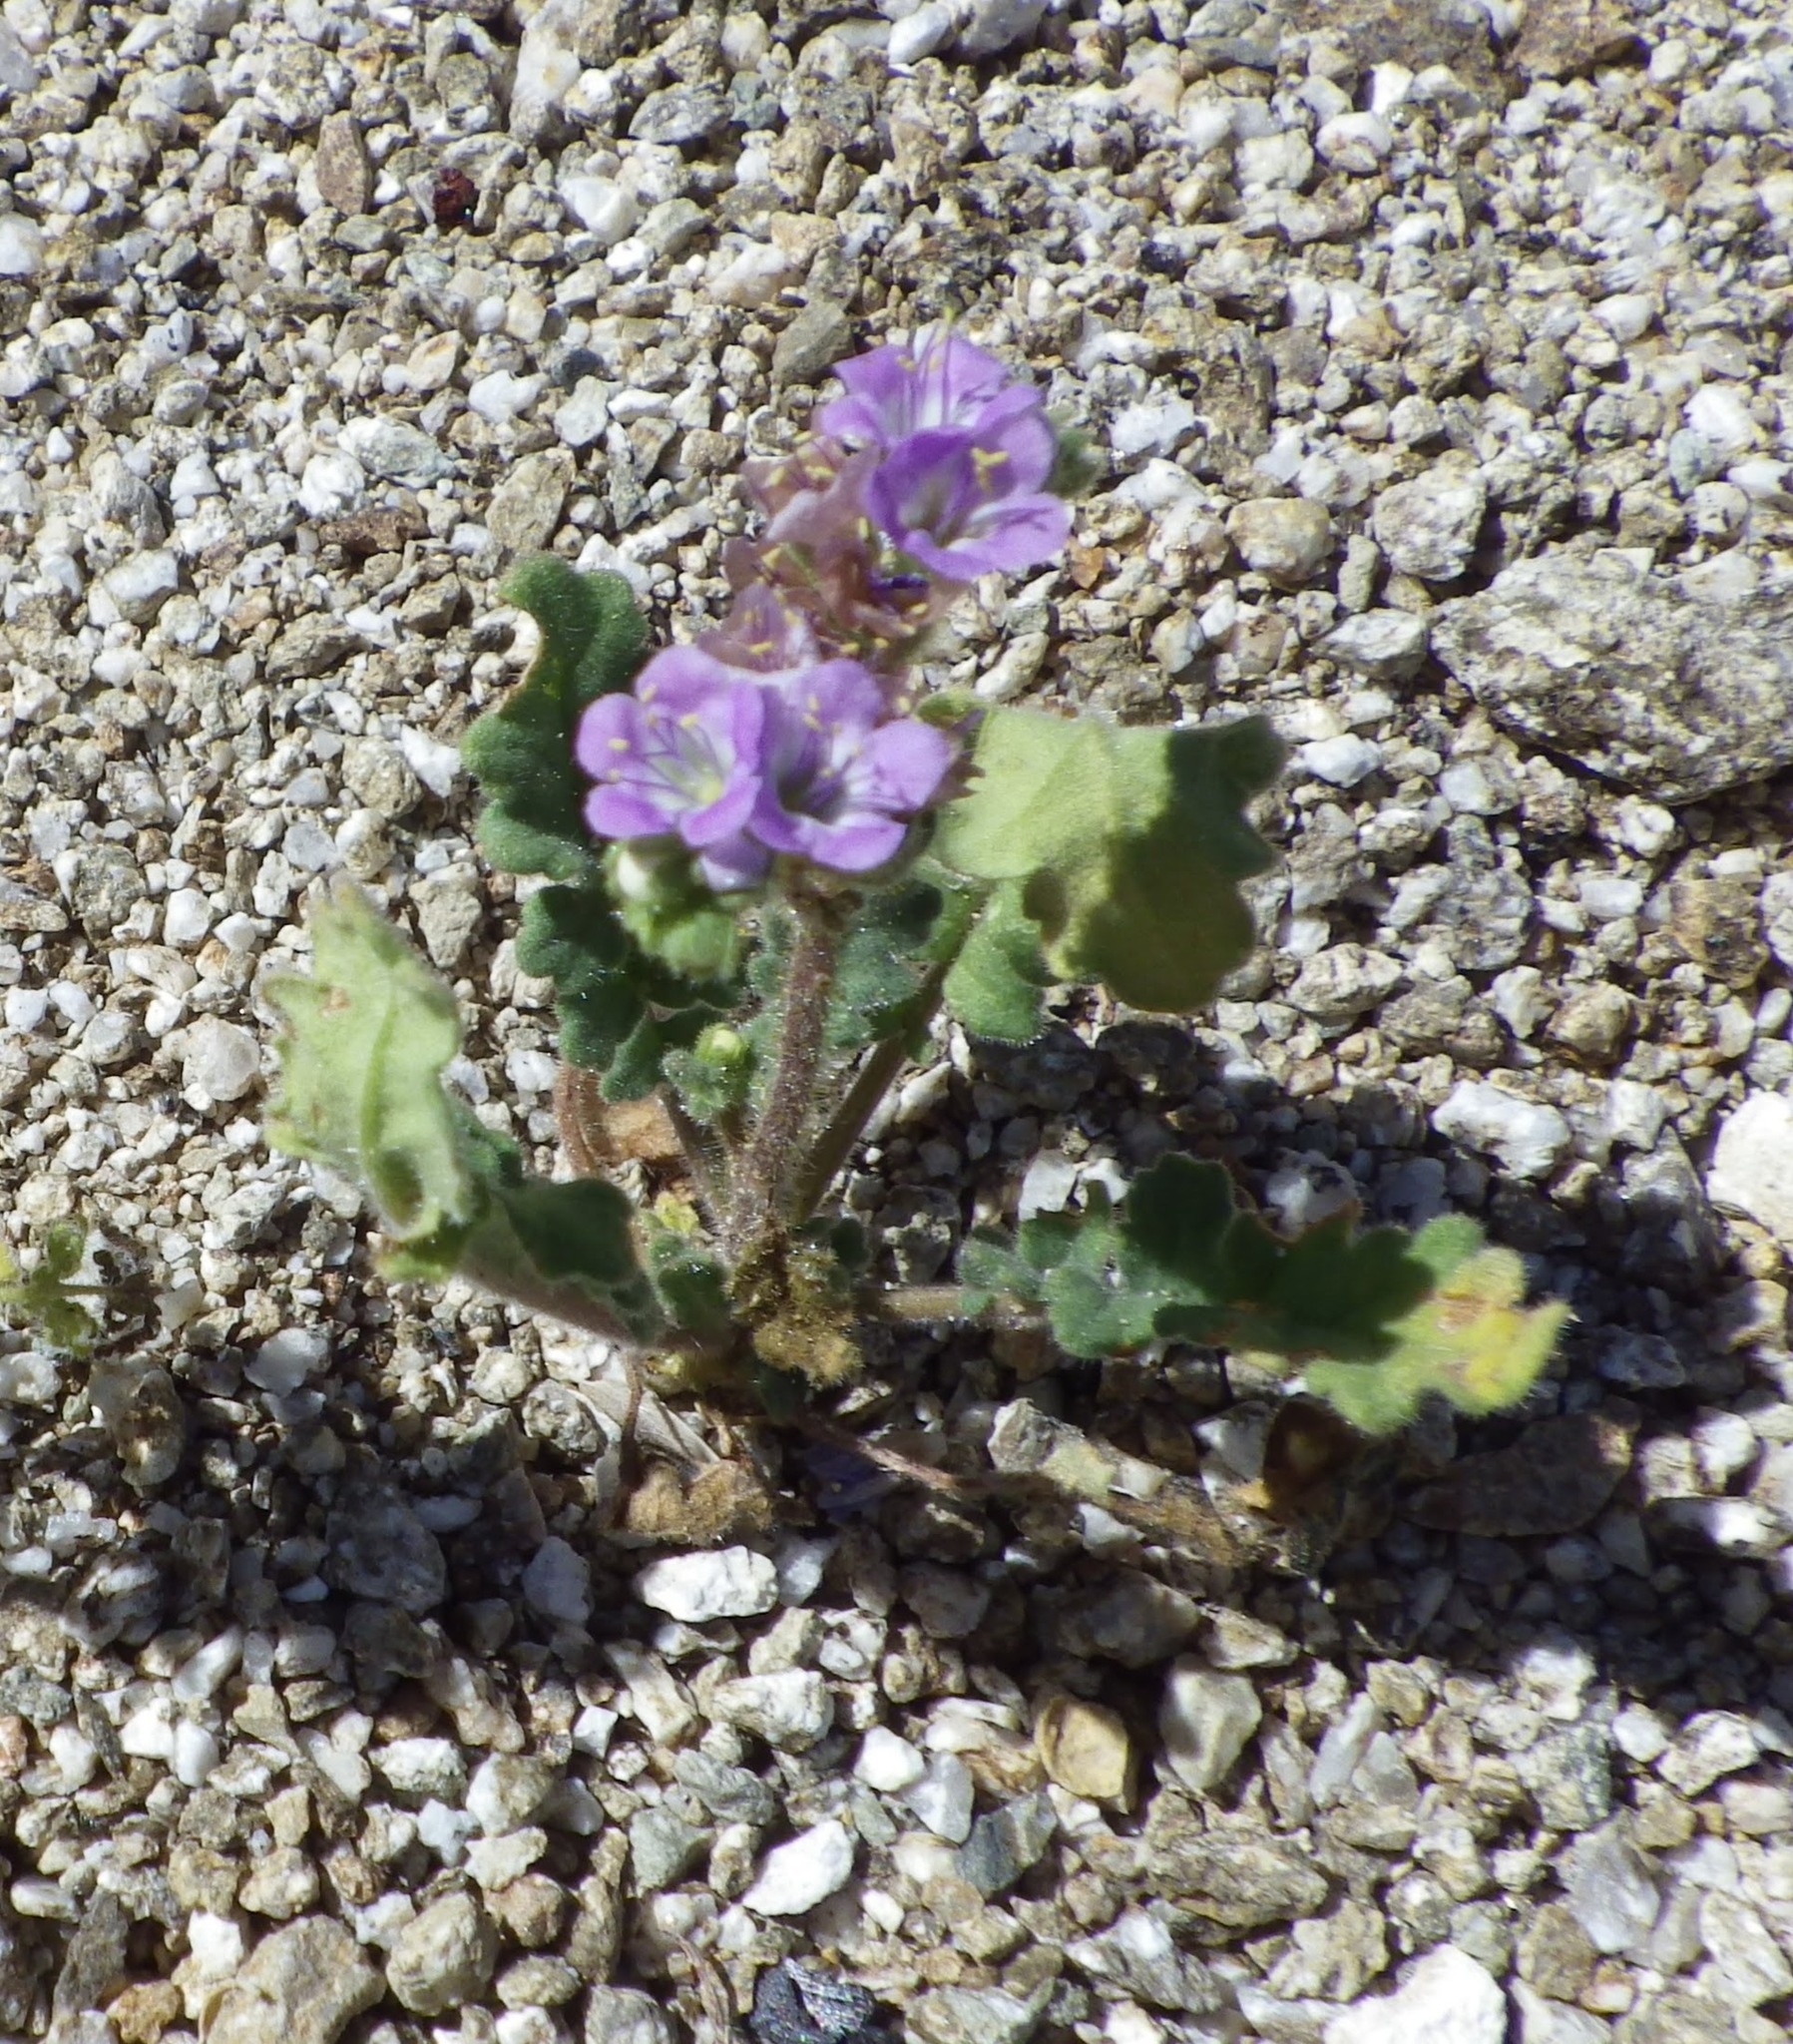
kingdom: Plantae
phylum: Tracheophyta
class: Magnoliopsida
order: Boraginales
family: Hydrophyllaceae
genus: Phacelia
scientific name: Phacelia crenulata
